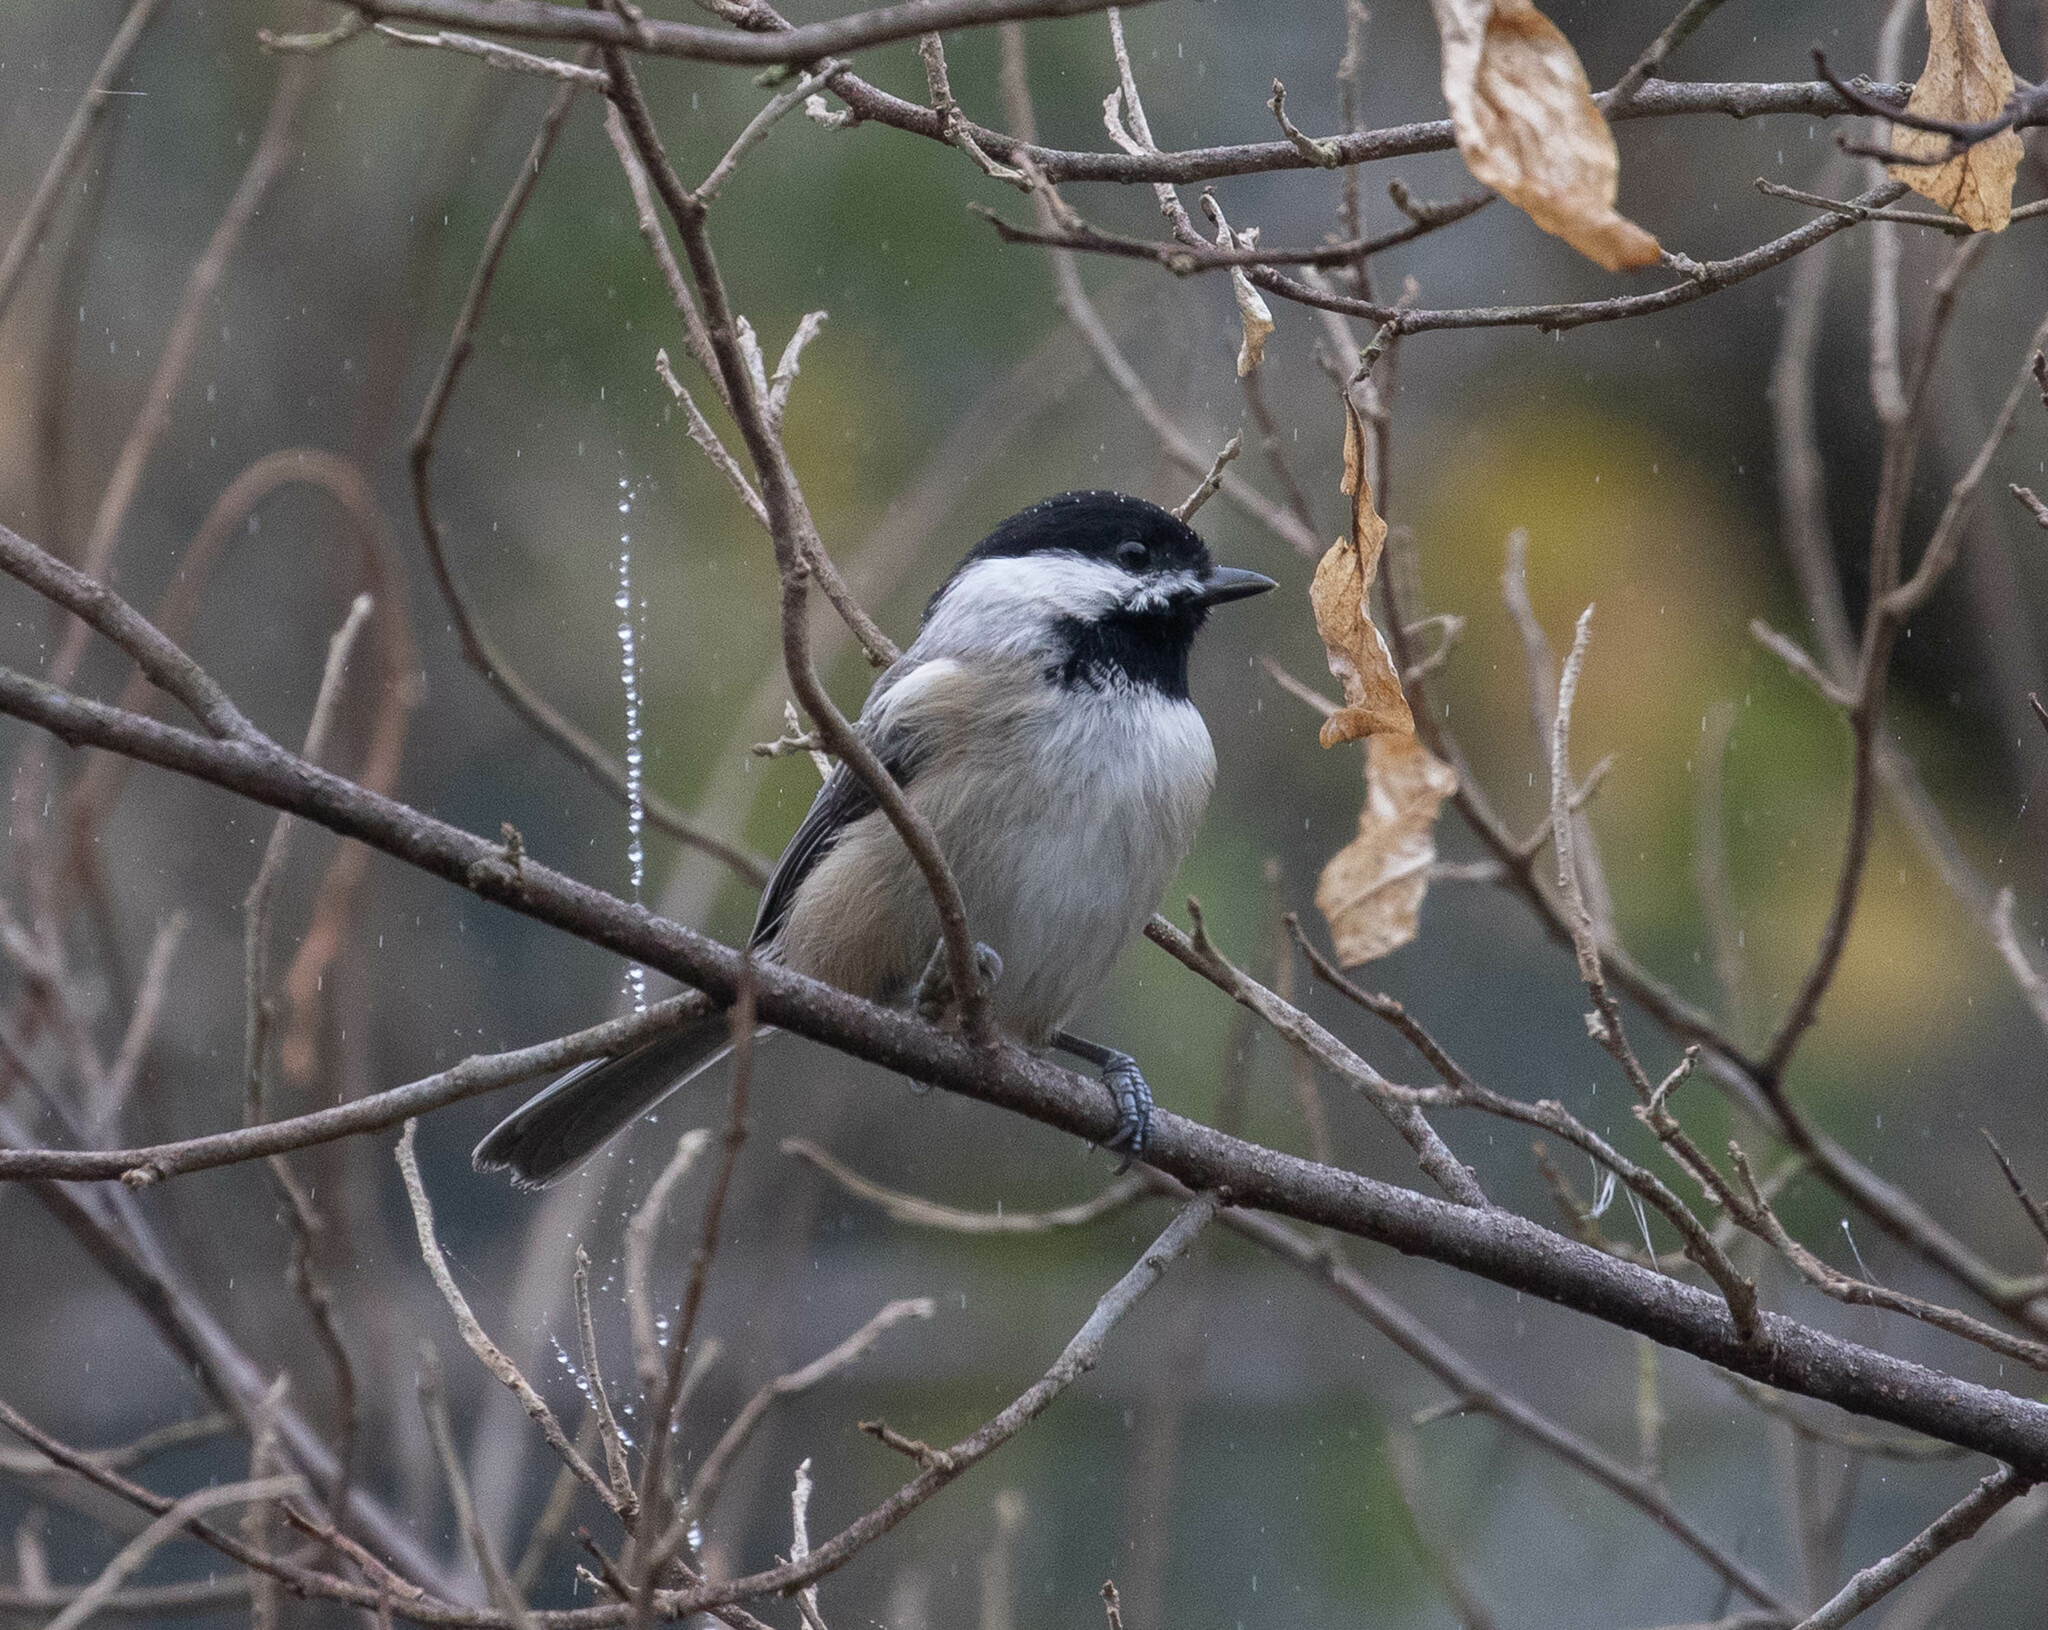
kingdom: Animalia
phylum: Chordata
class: Aves
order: Passeriformes
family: Paridae
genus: Poecile
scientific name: Poecile carolinensis
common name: Carolina chickadee
